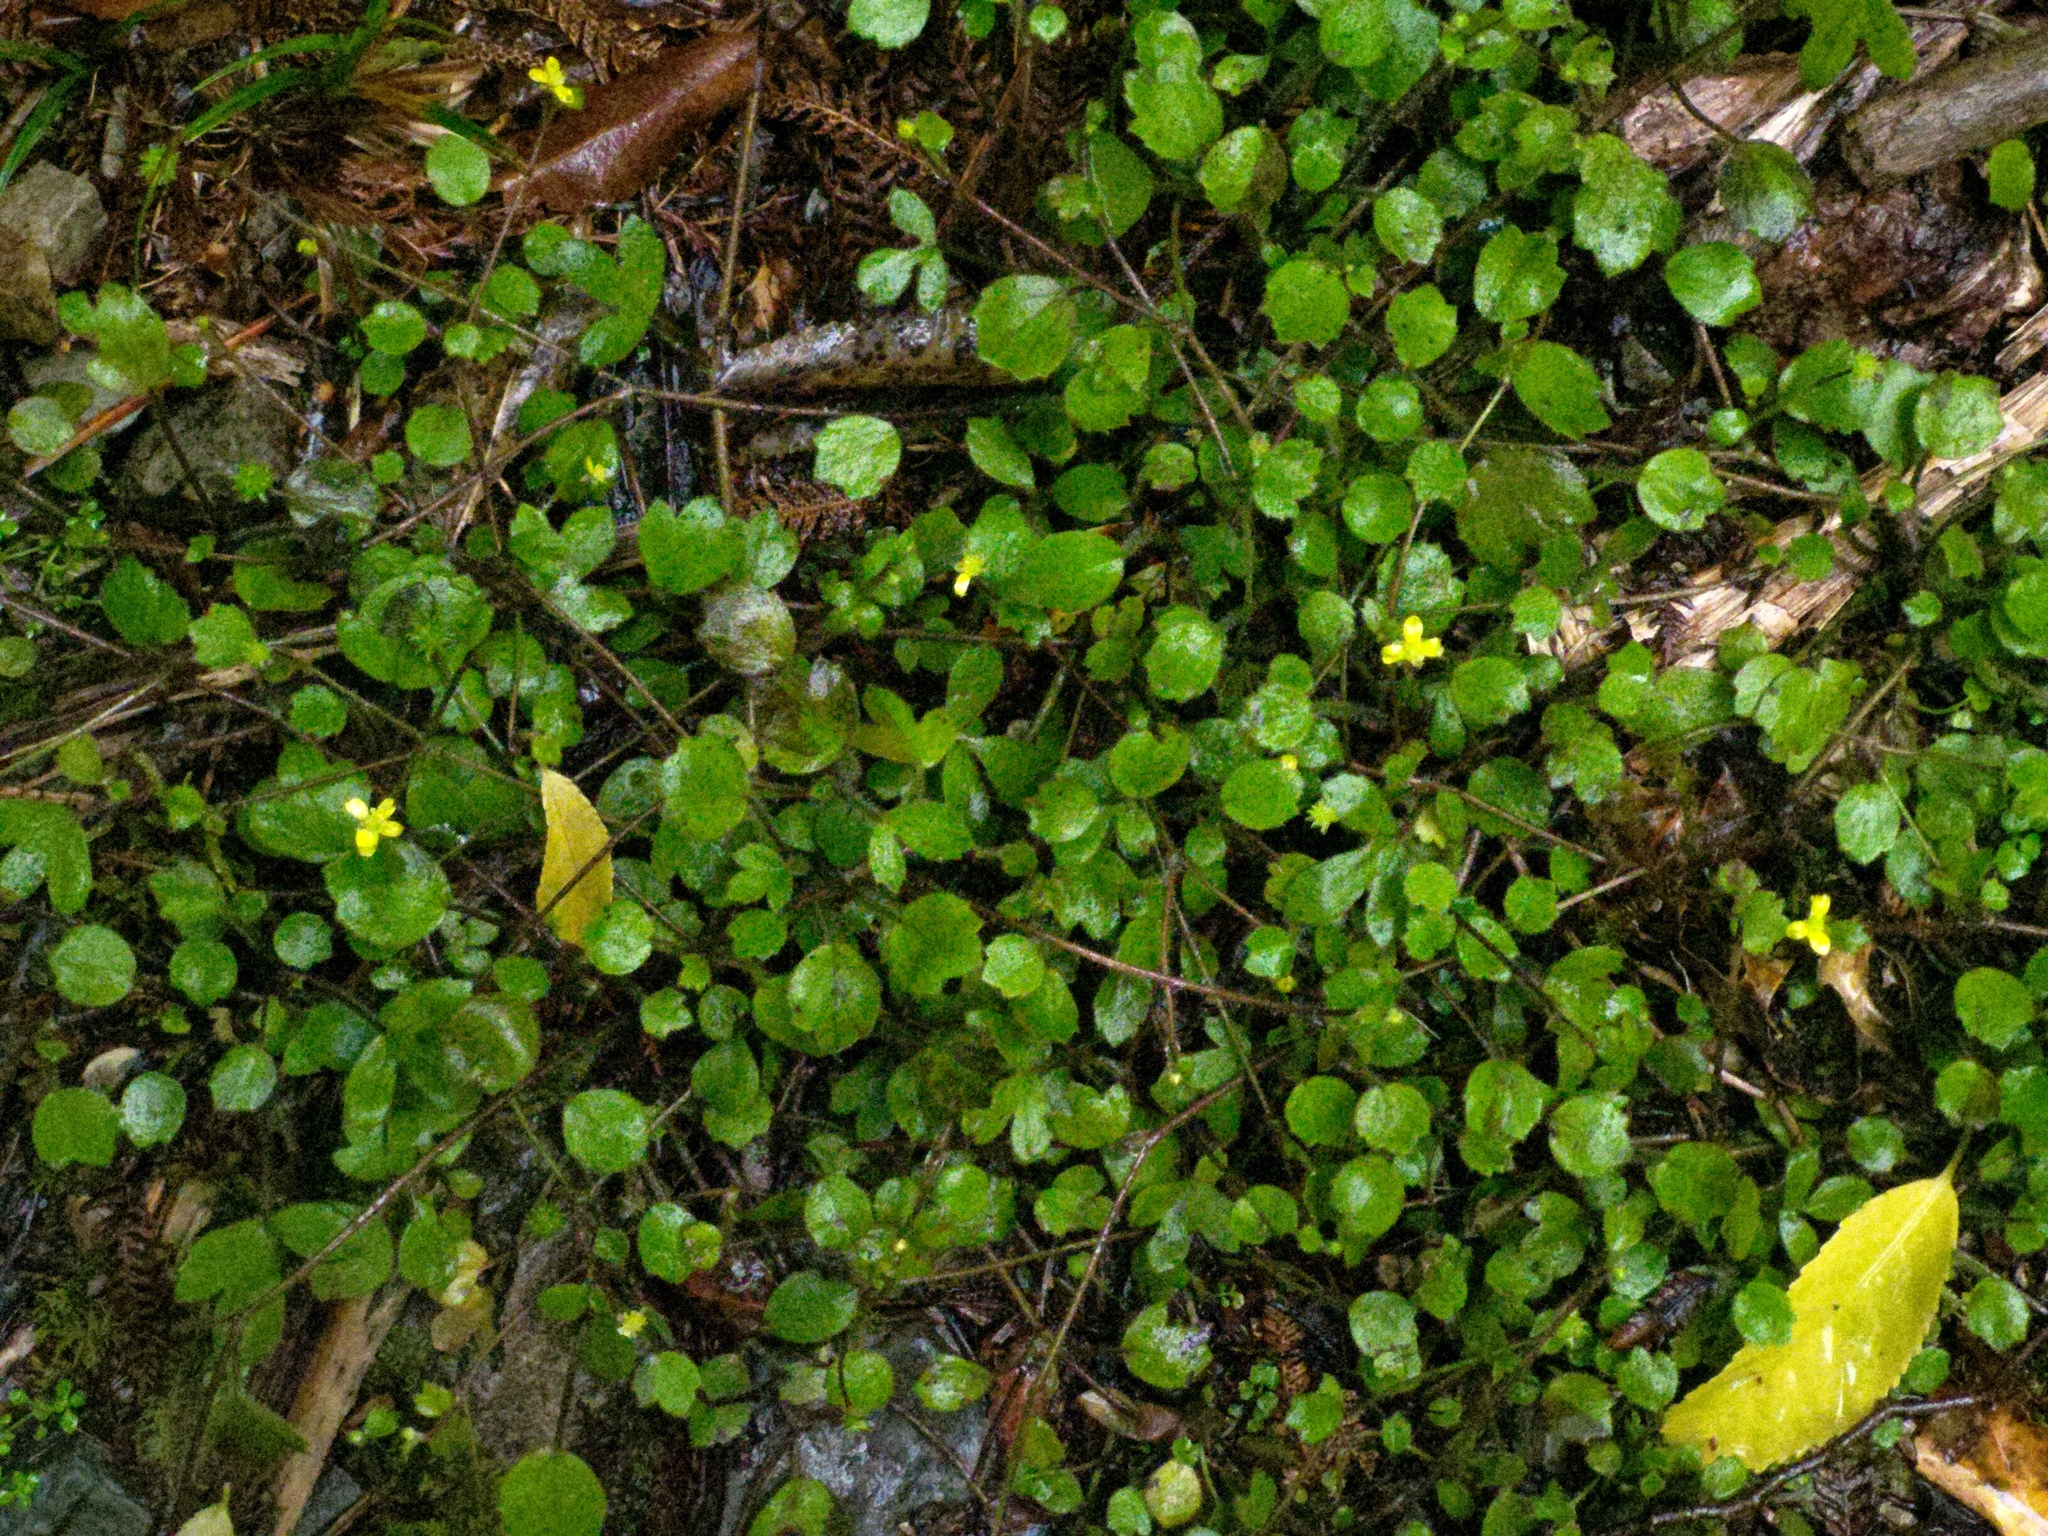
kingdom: Plantae
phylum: Tracheophyta
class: Magnoliopsida
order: Ranunculales
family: Ranunculaceae
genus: Ranunculus
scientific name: Ranunculus membranifolius
